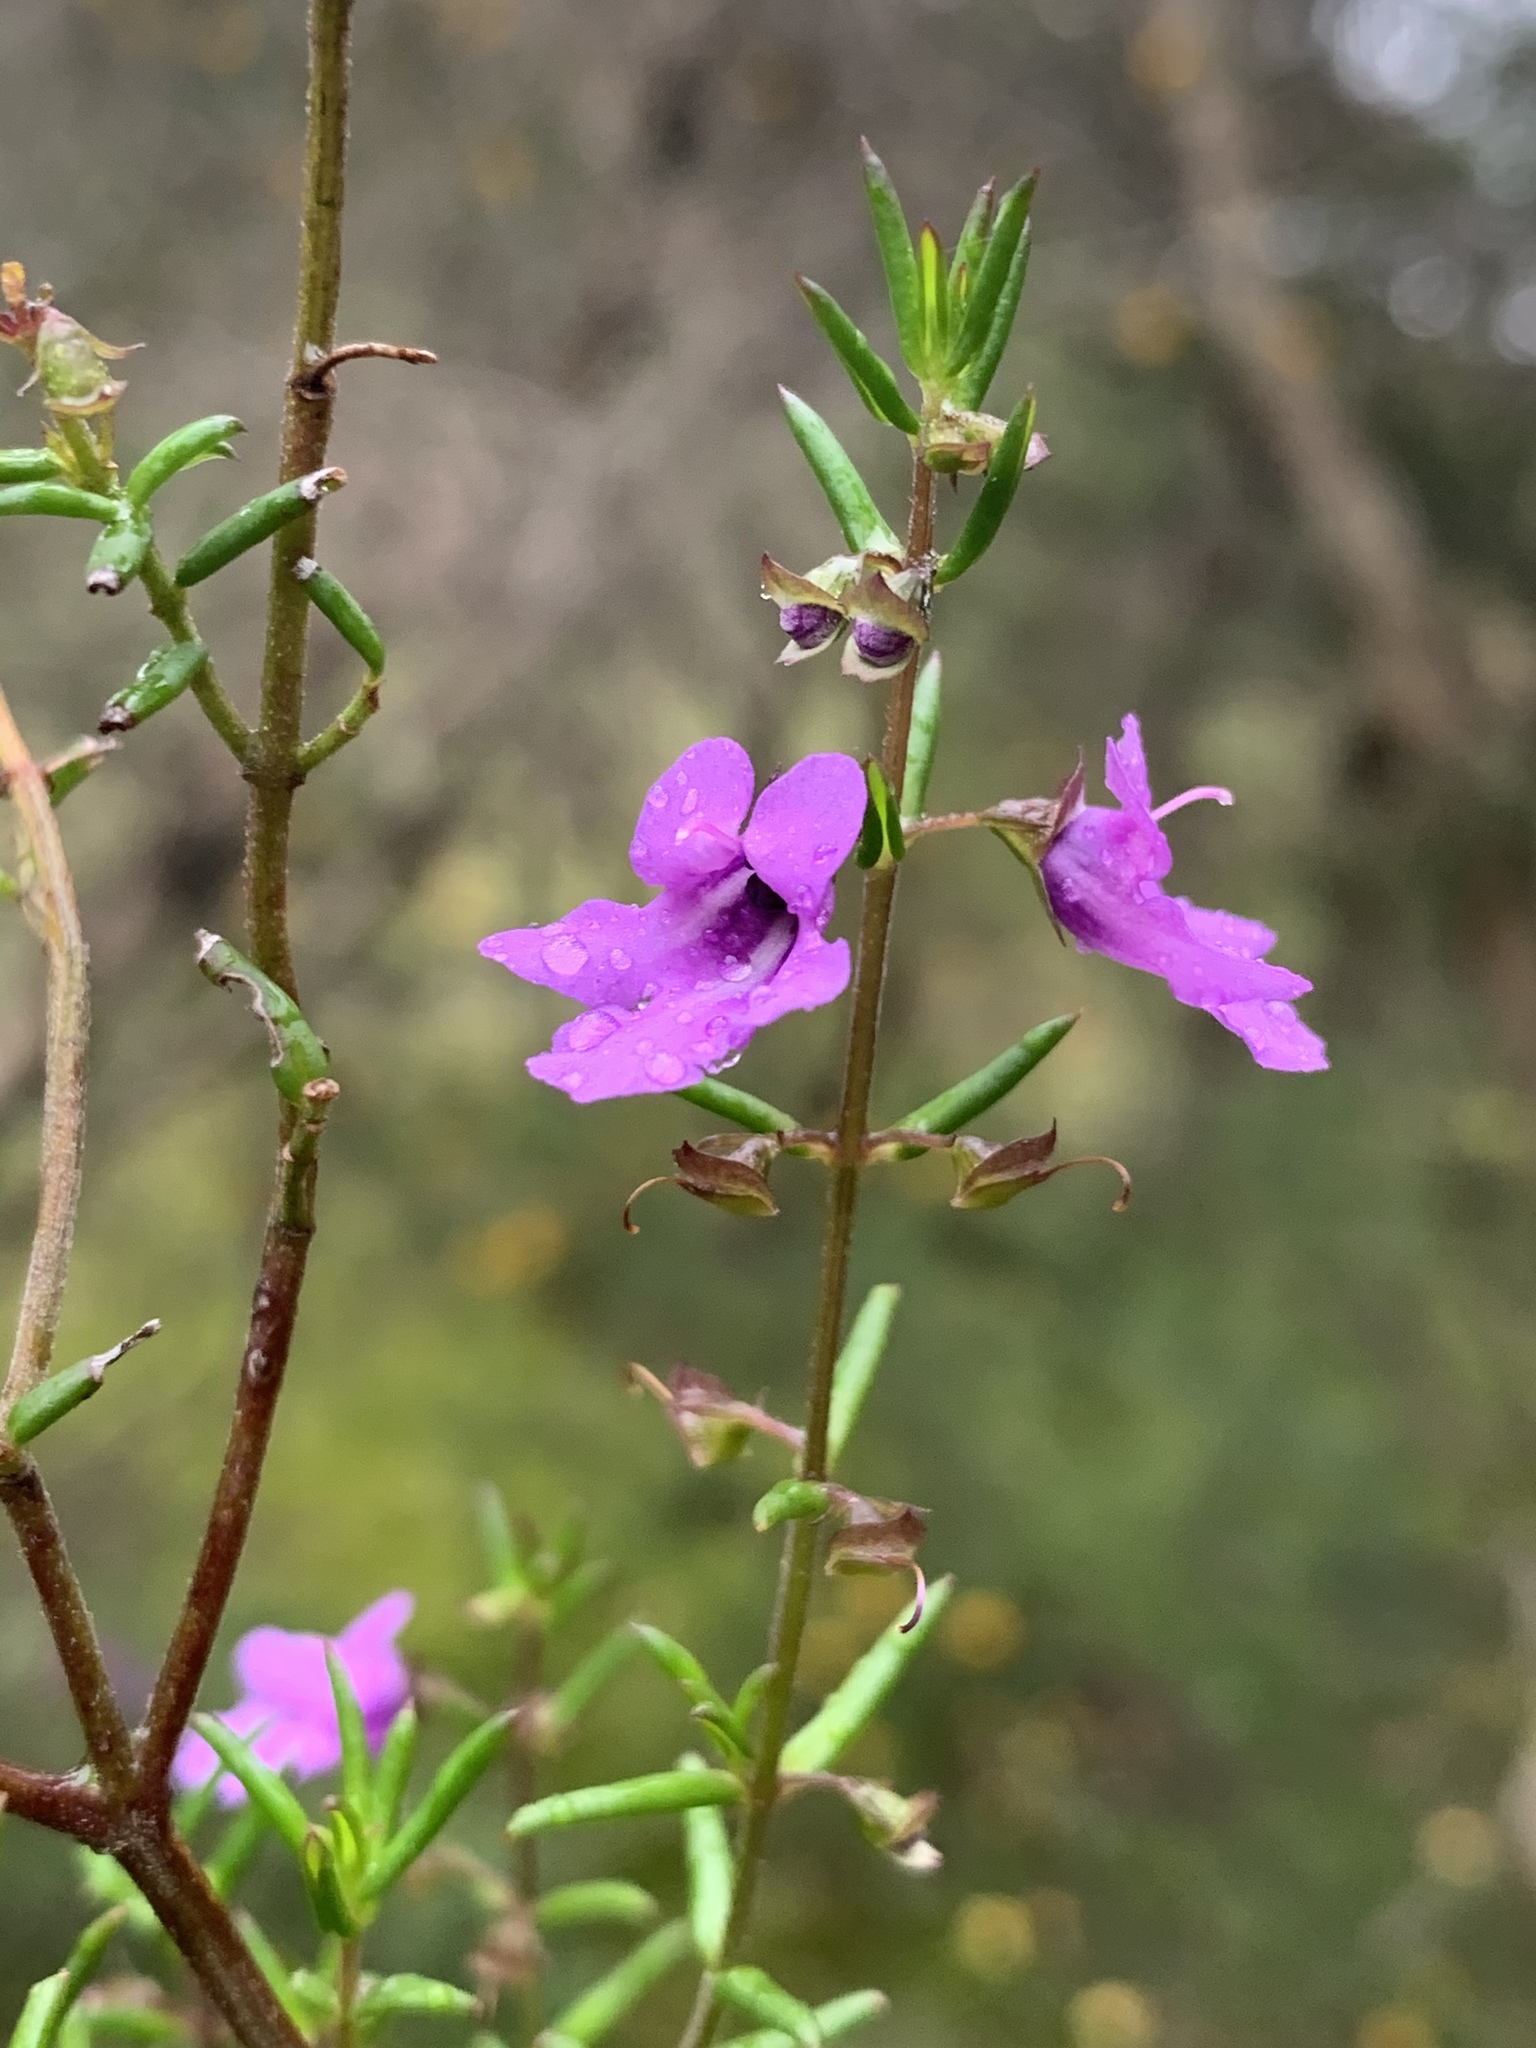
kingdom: Plantae
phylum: Tracheophyta
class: Magnoliopsida
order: Lamiales
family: Lamiaceae
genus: Prostanthera
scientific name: Prostanthera scutellarioides
